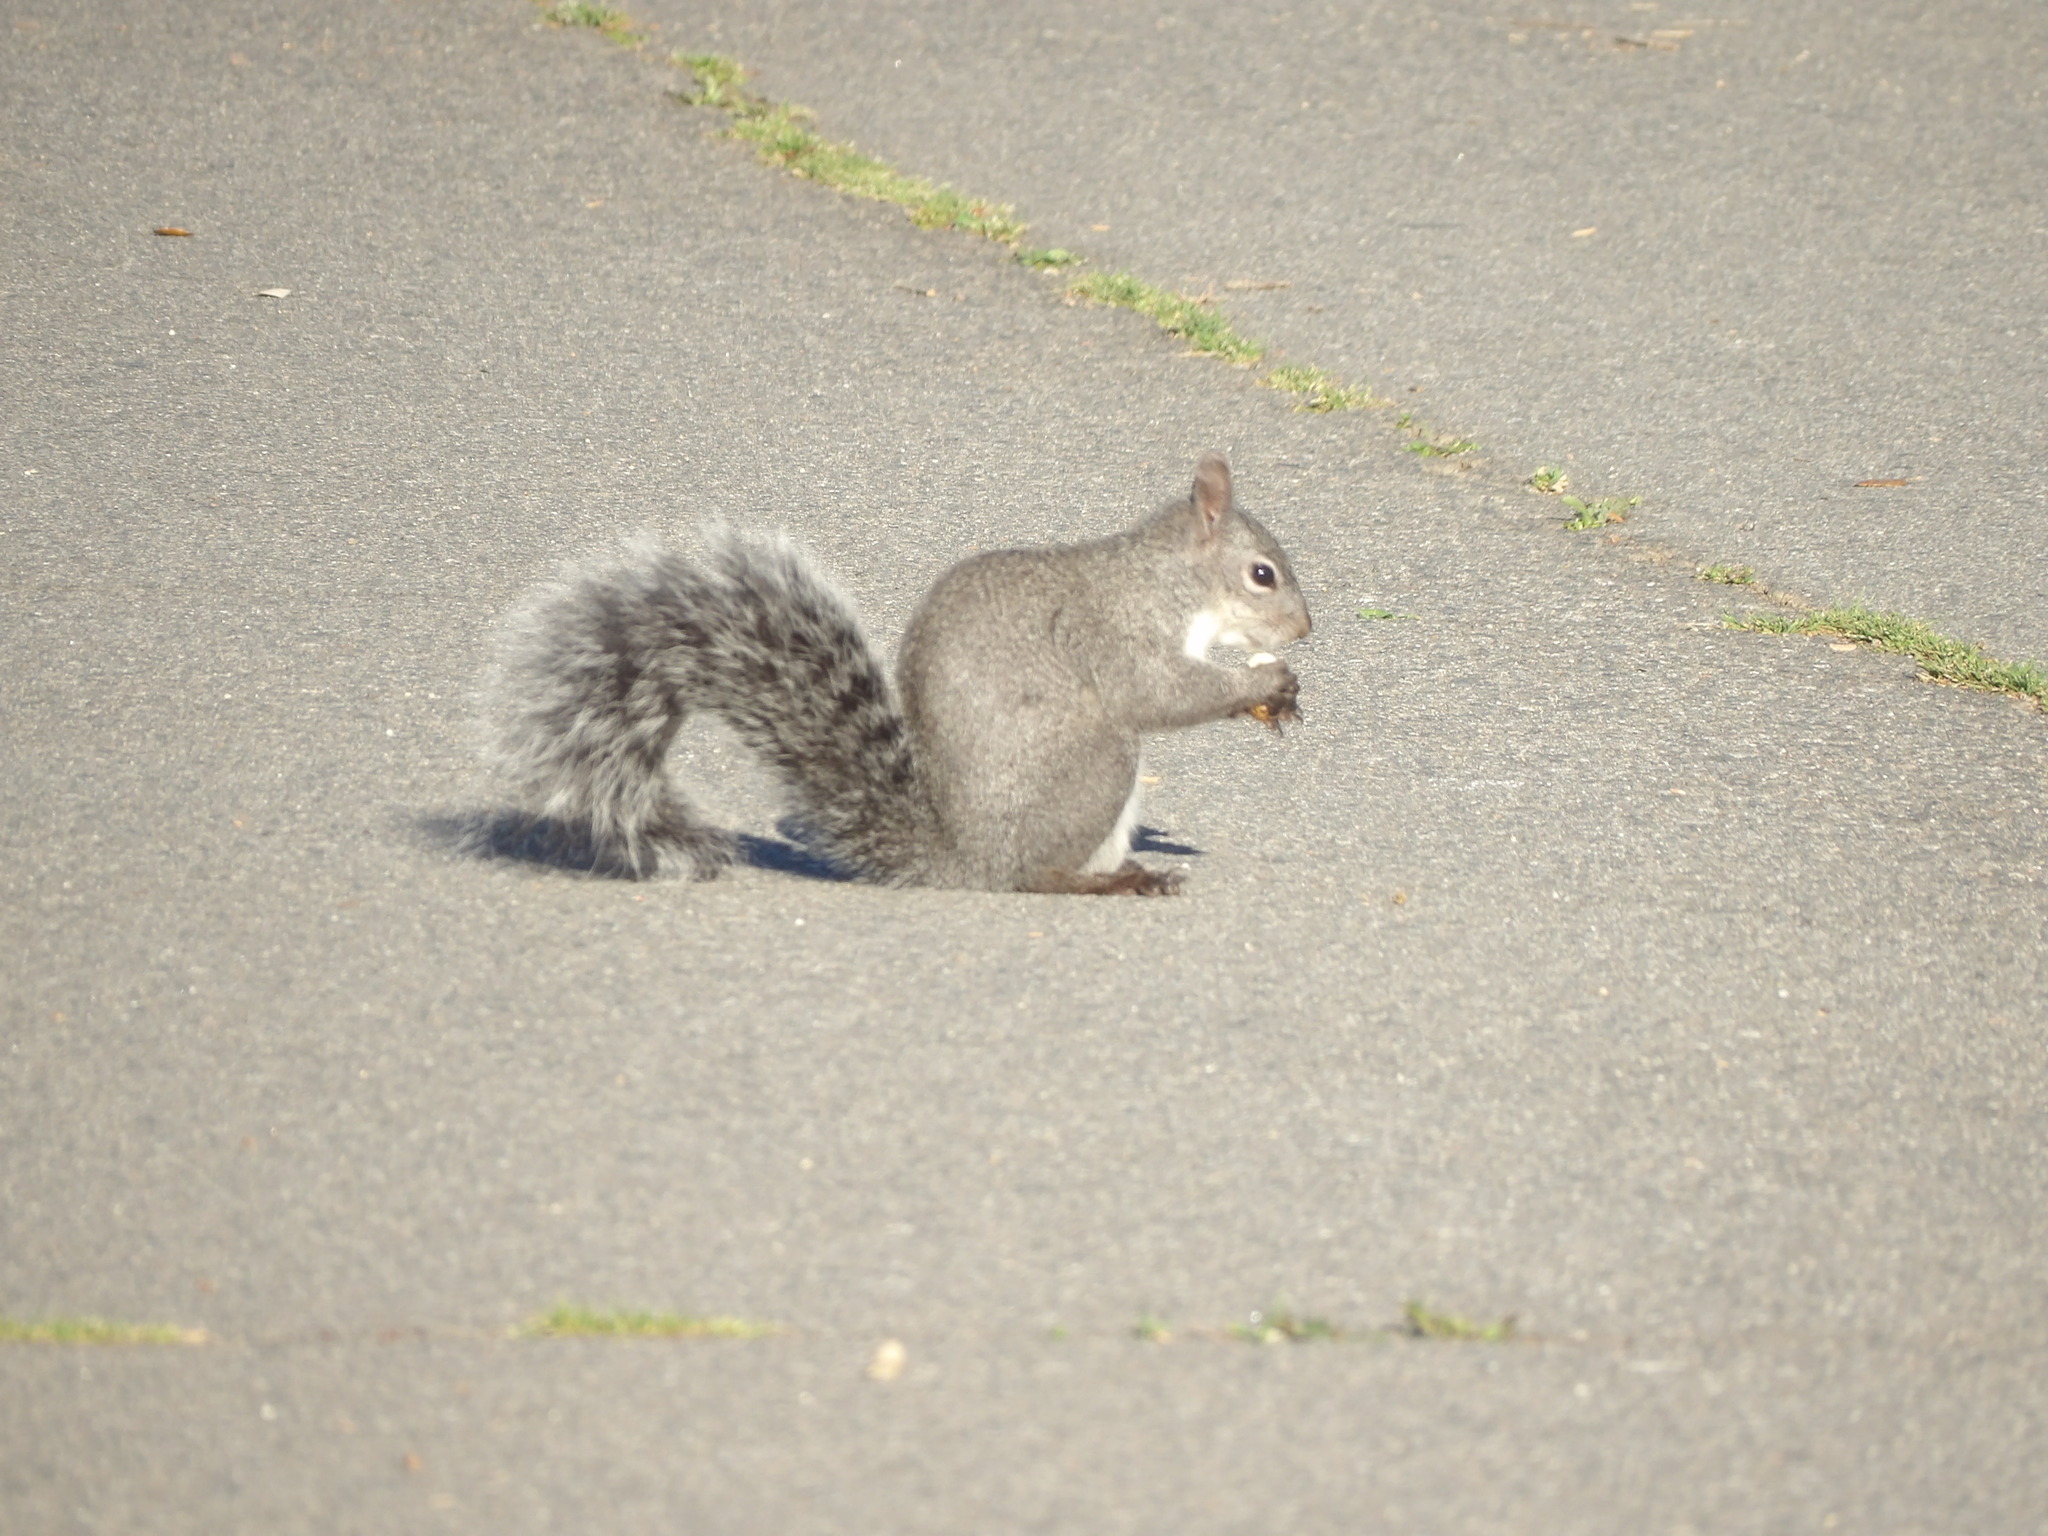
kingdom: Animalia
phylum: Chordata
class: Mammalia
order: Rodentia
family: Sciuridae
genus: Sciurus
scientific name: Sciurus griseus
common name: Western gray squirrel
